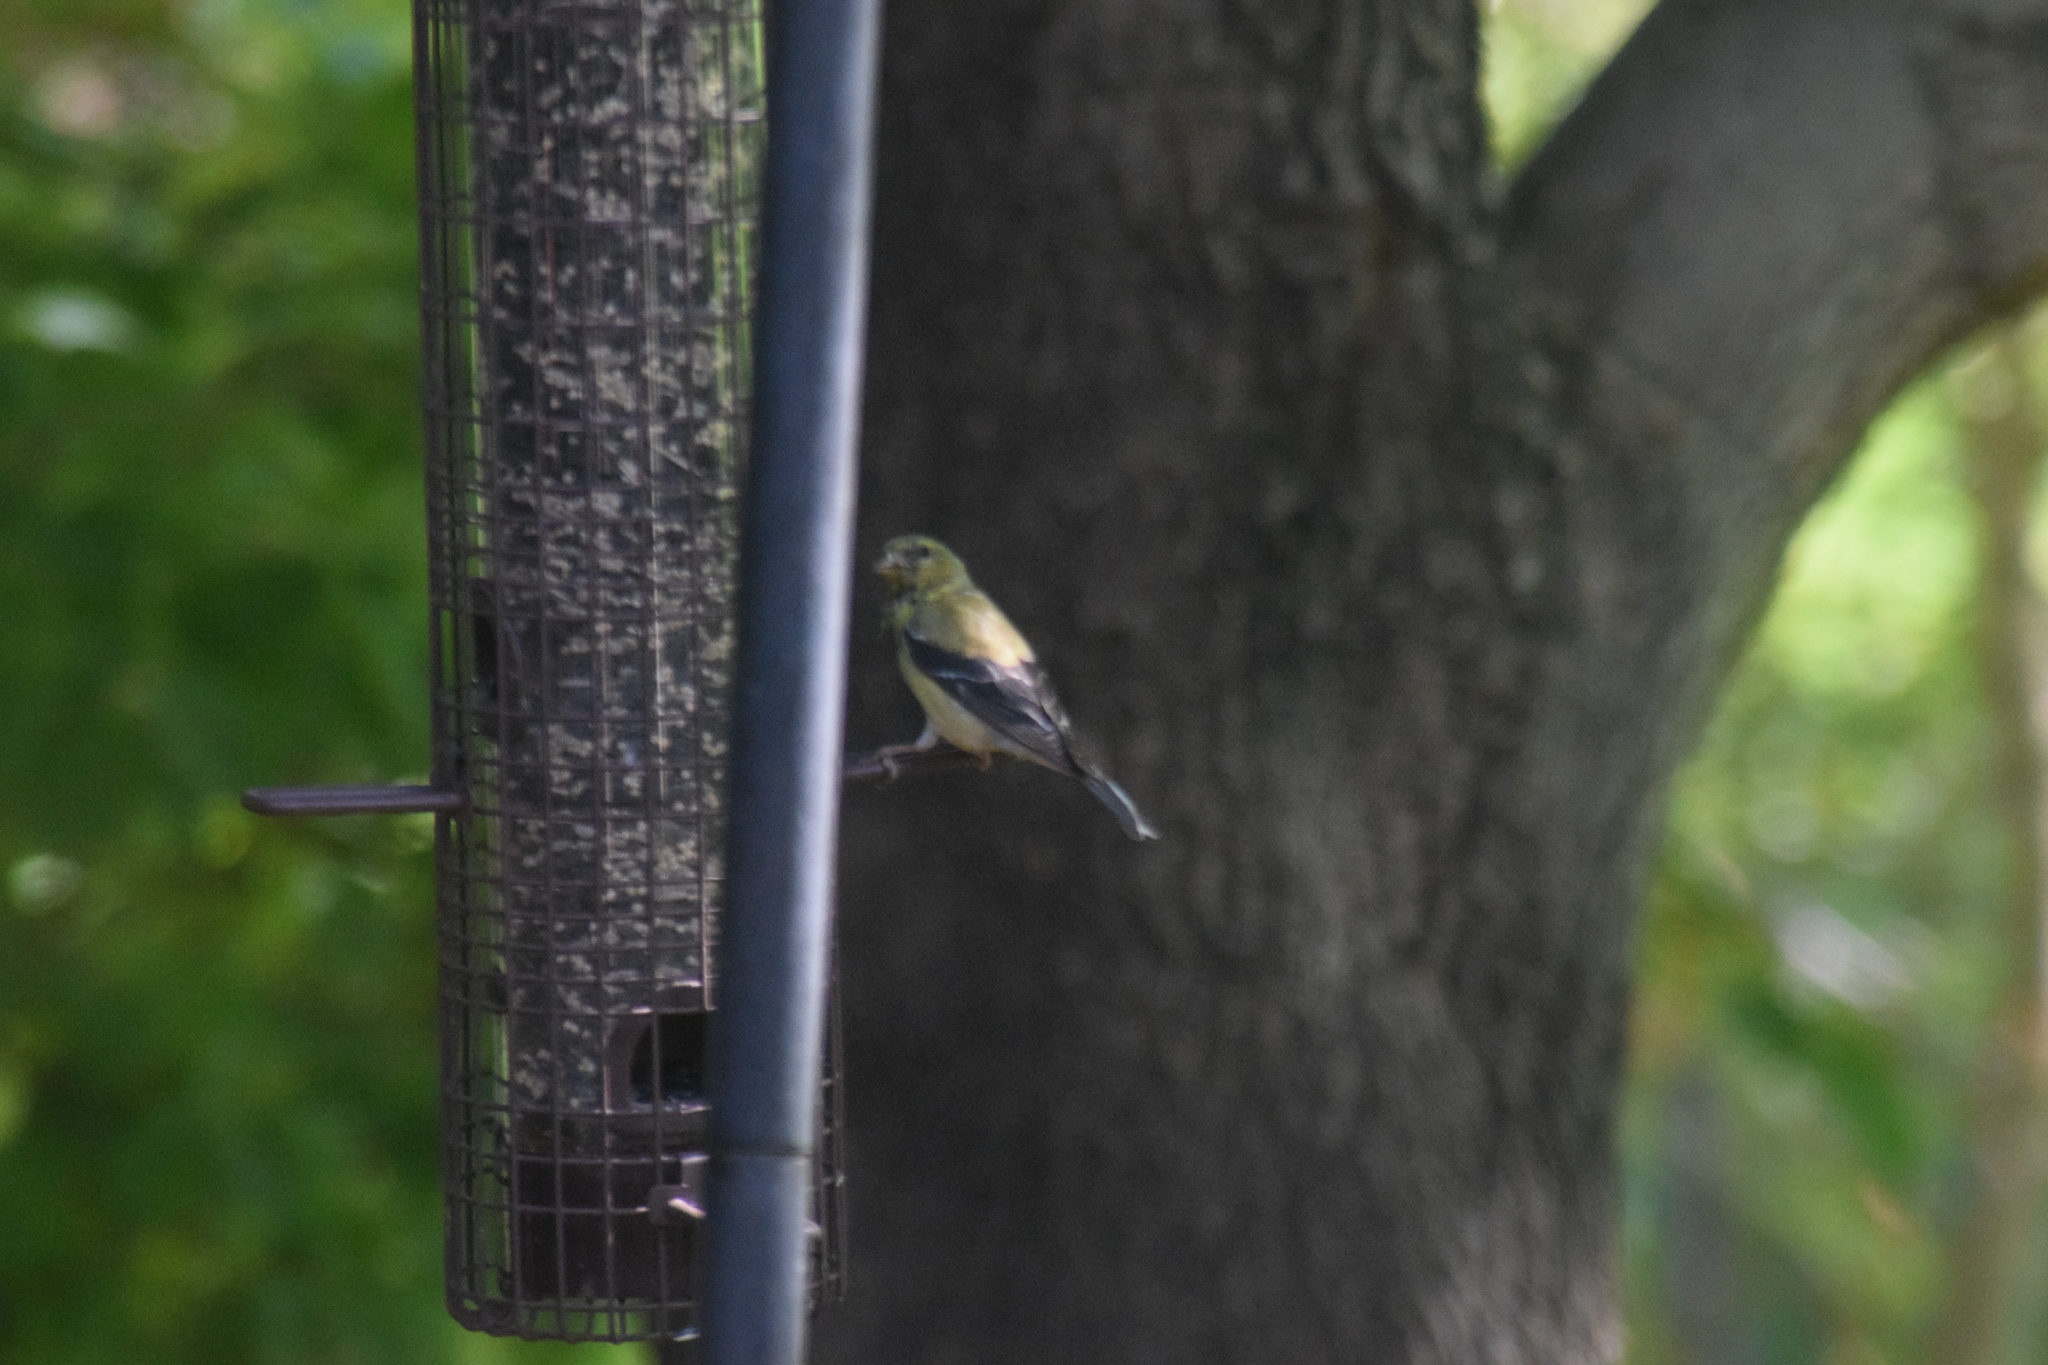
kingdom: Animalia
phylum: Chordata
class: Aves
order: Passeriformes
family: Fringillidae
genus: Spinus
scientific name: Spinus tristis
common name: American goldfinch
